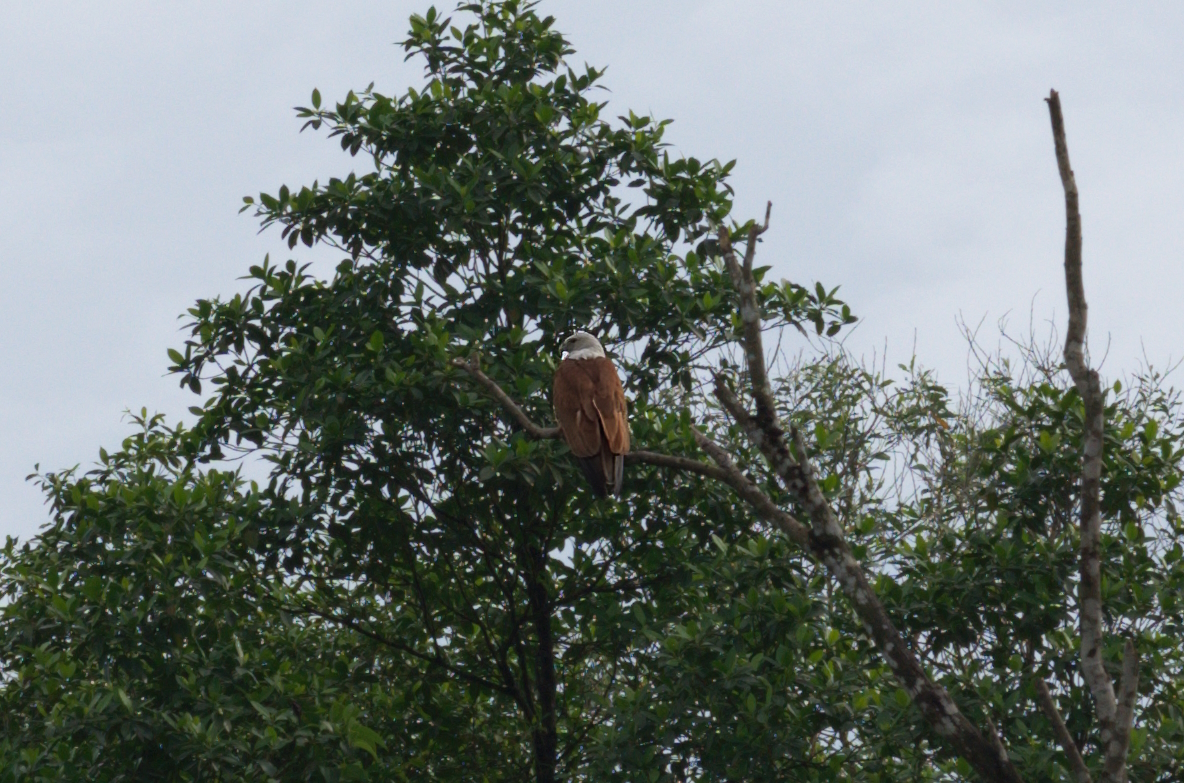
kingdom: Animalia
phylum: Chordata
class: Aves
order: Accipitriformes
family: Accipitridae
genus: Haliastur
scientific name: Haliastur indus
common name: Brahminy kite
